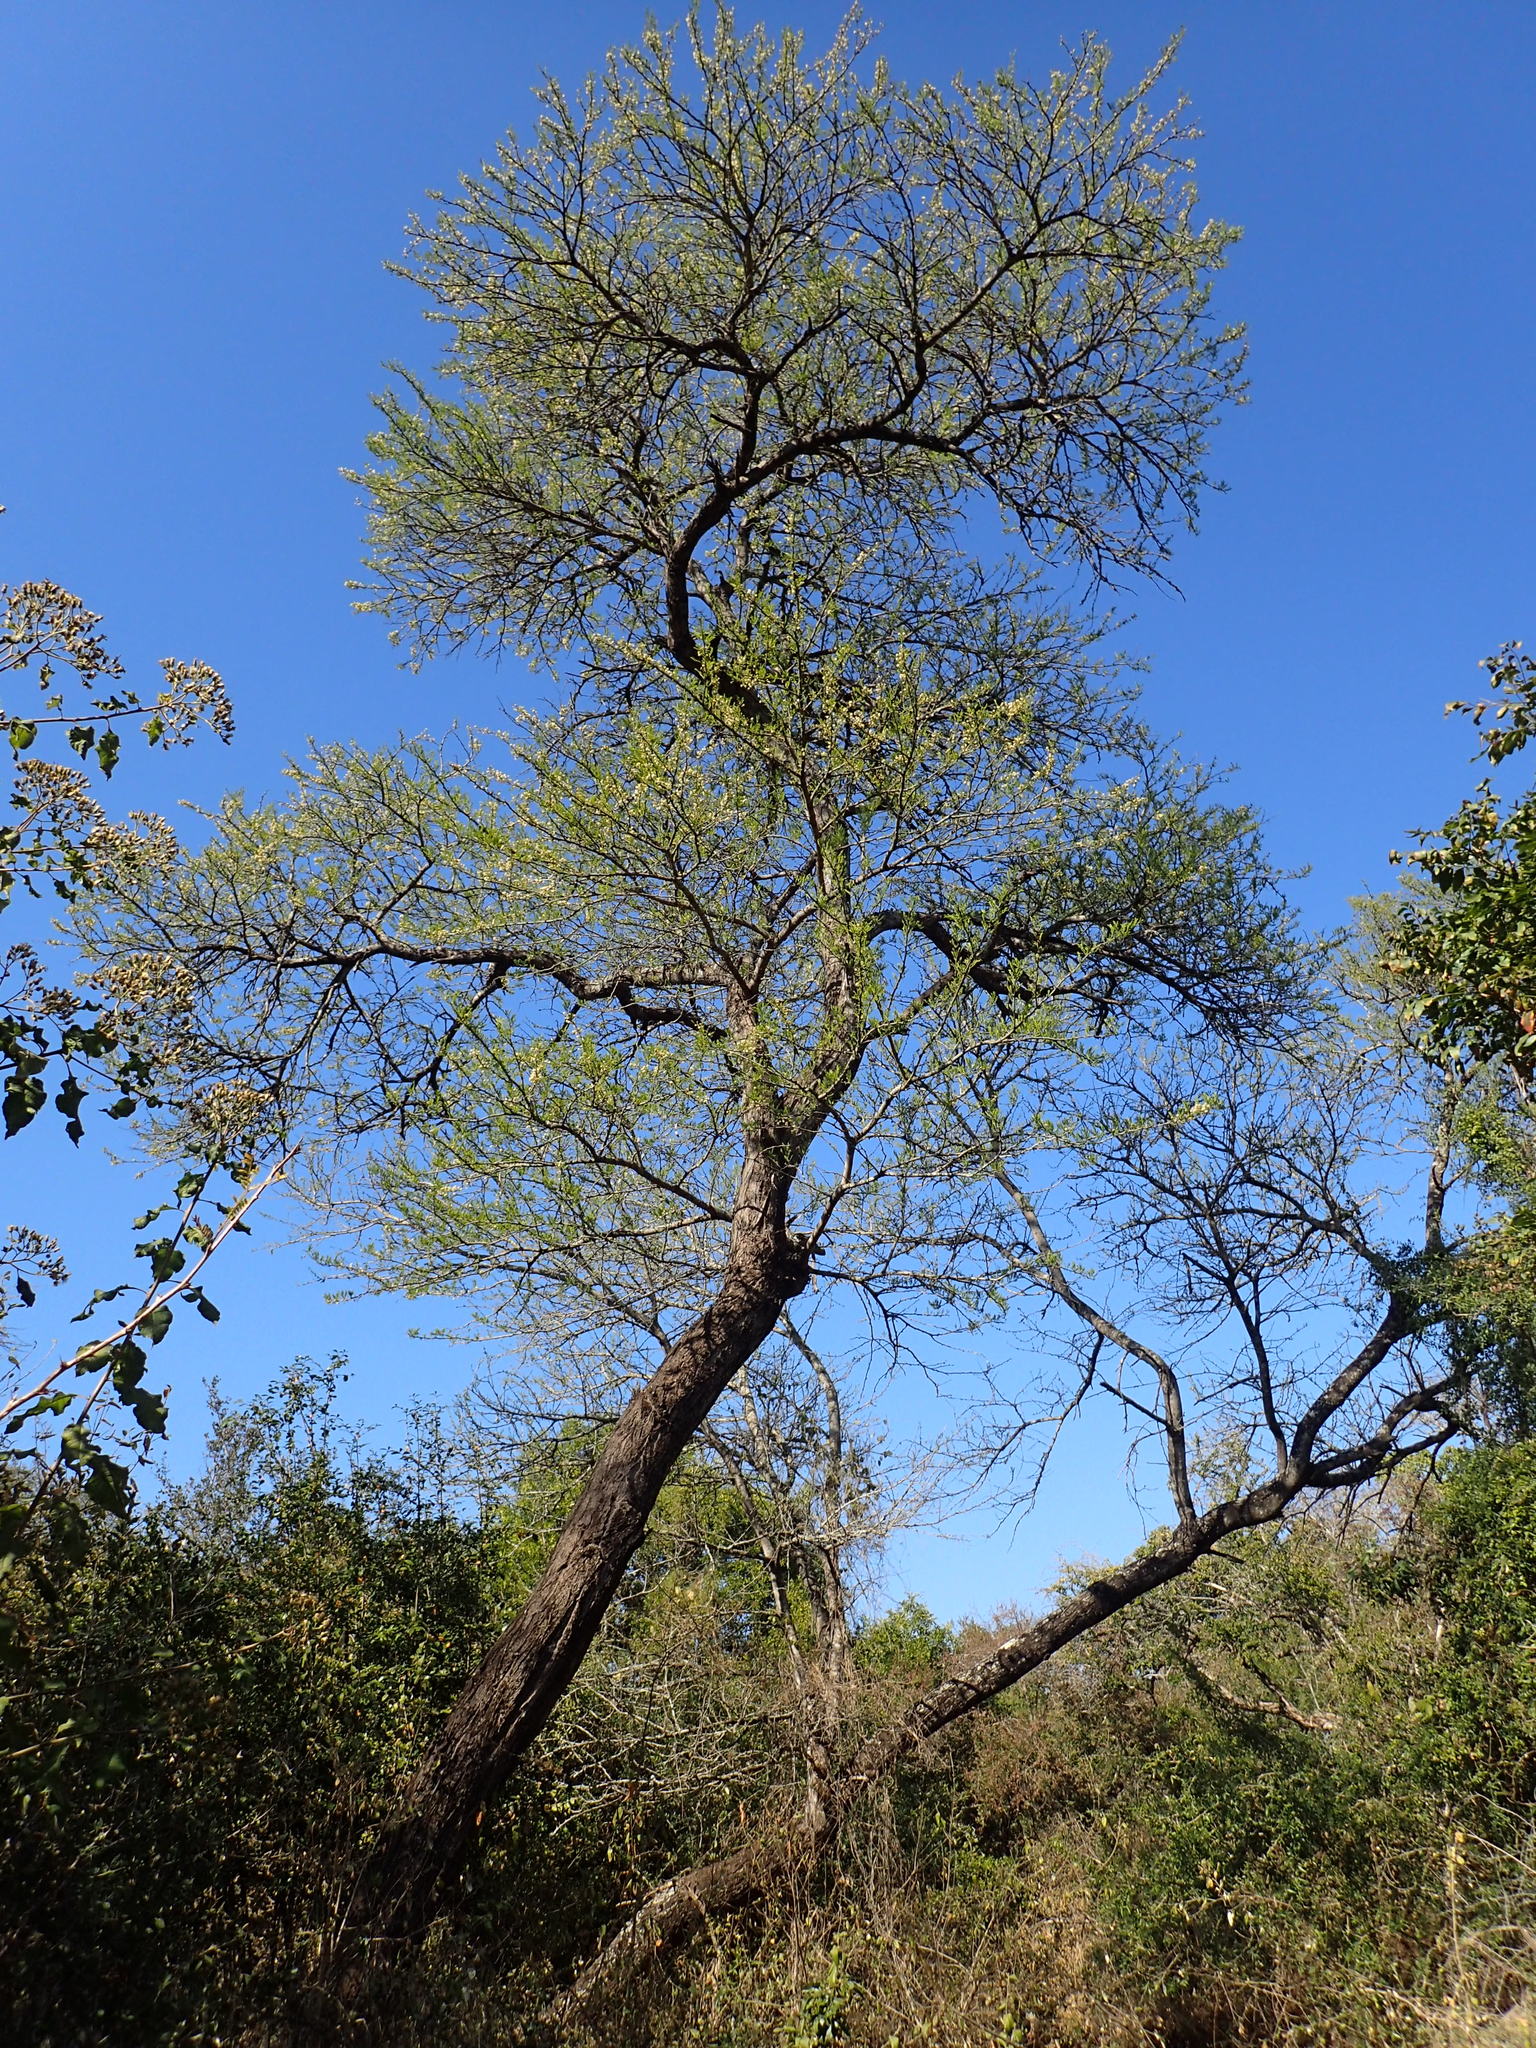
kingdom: Plantae
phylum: Tracheophyta
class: Magnoliopsida
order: Fabales
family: Fabaceae
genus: Vachellia
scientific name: Vachellia robusta
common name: Ankle thorn
